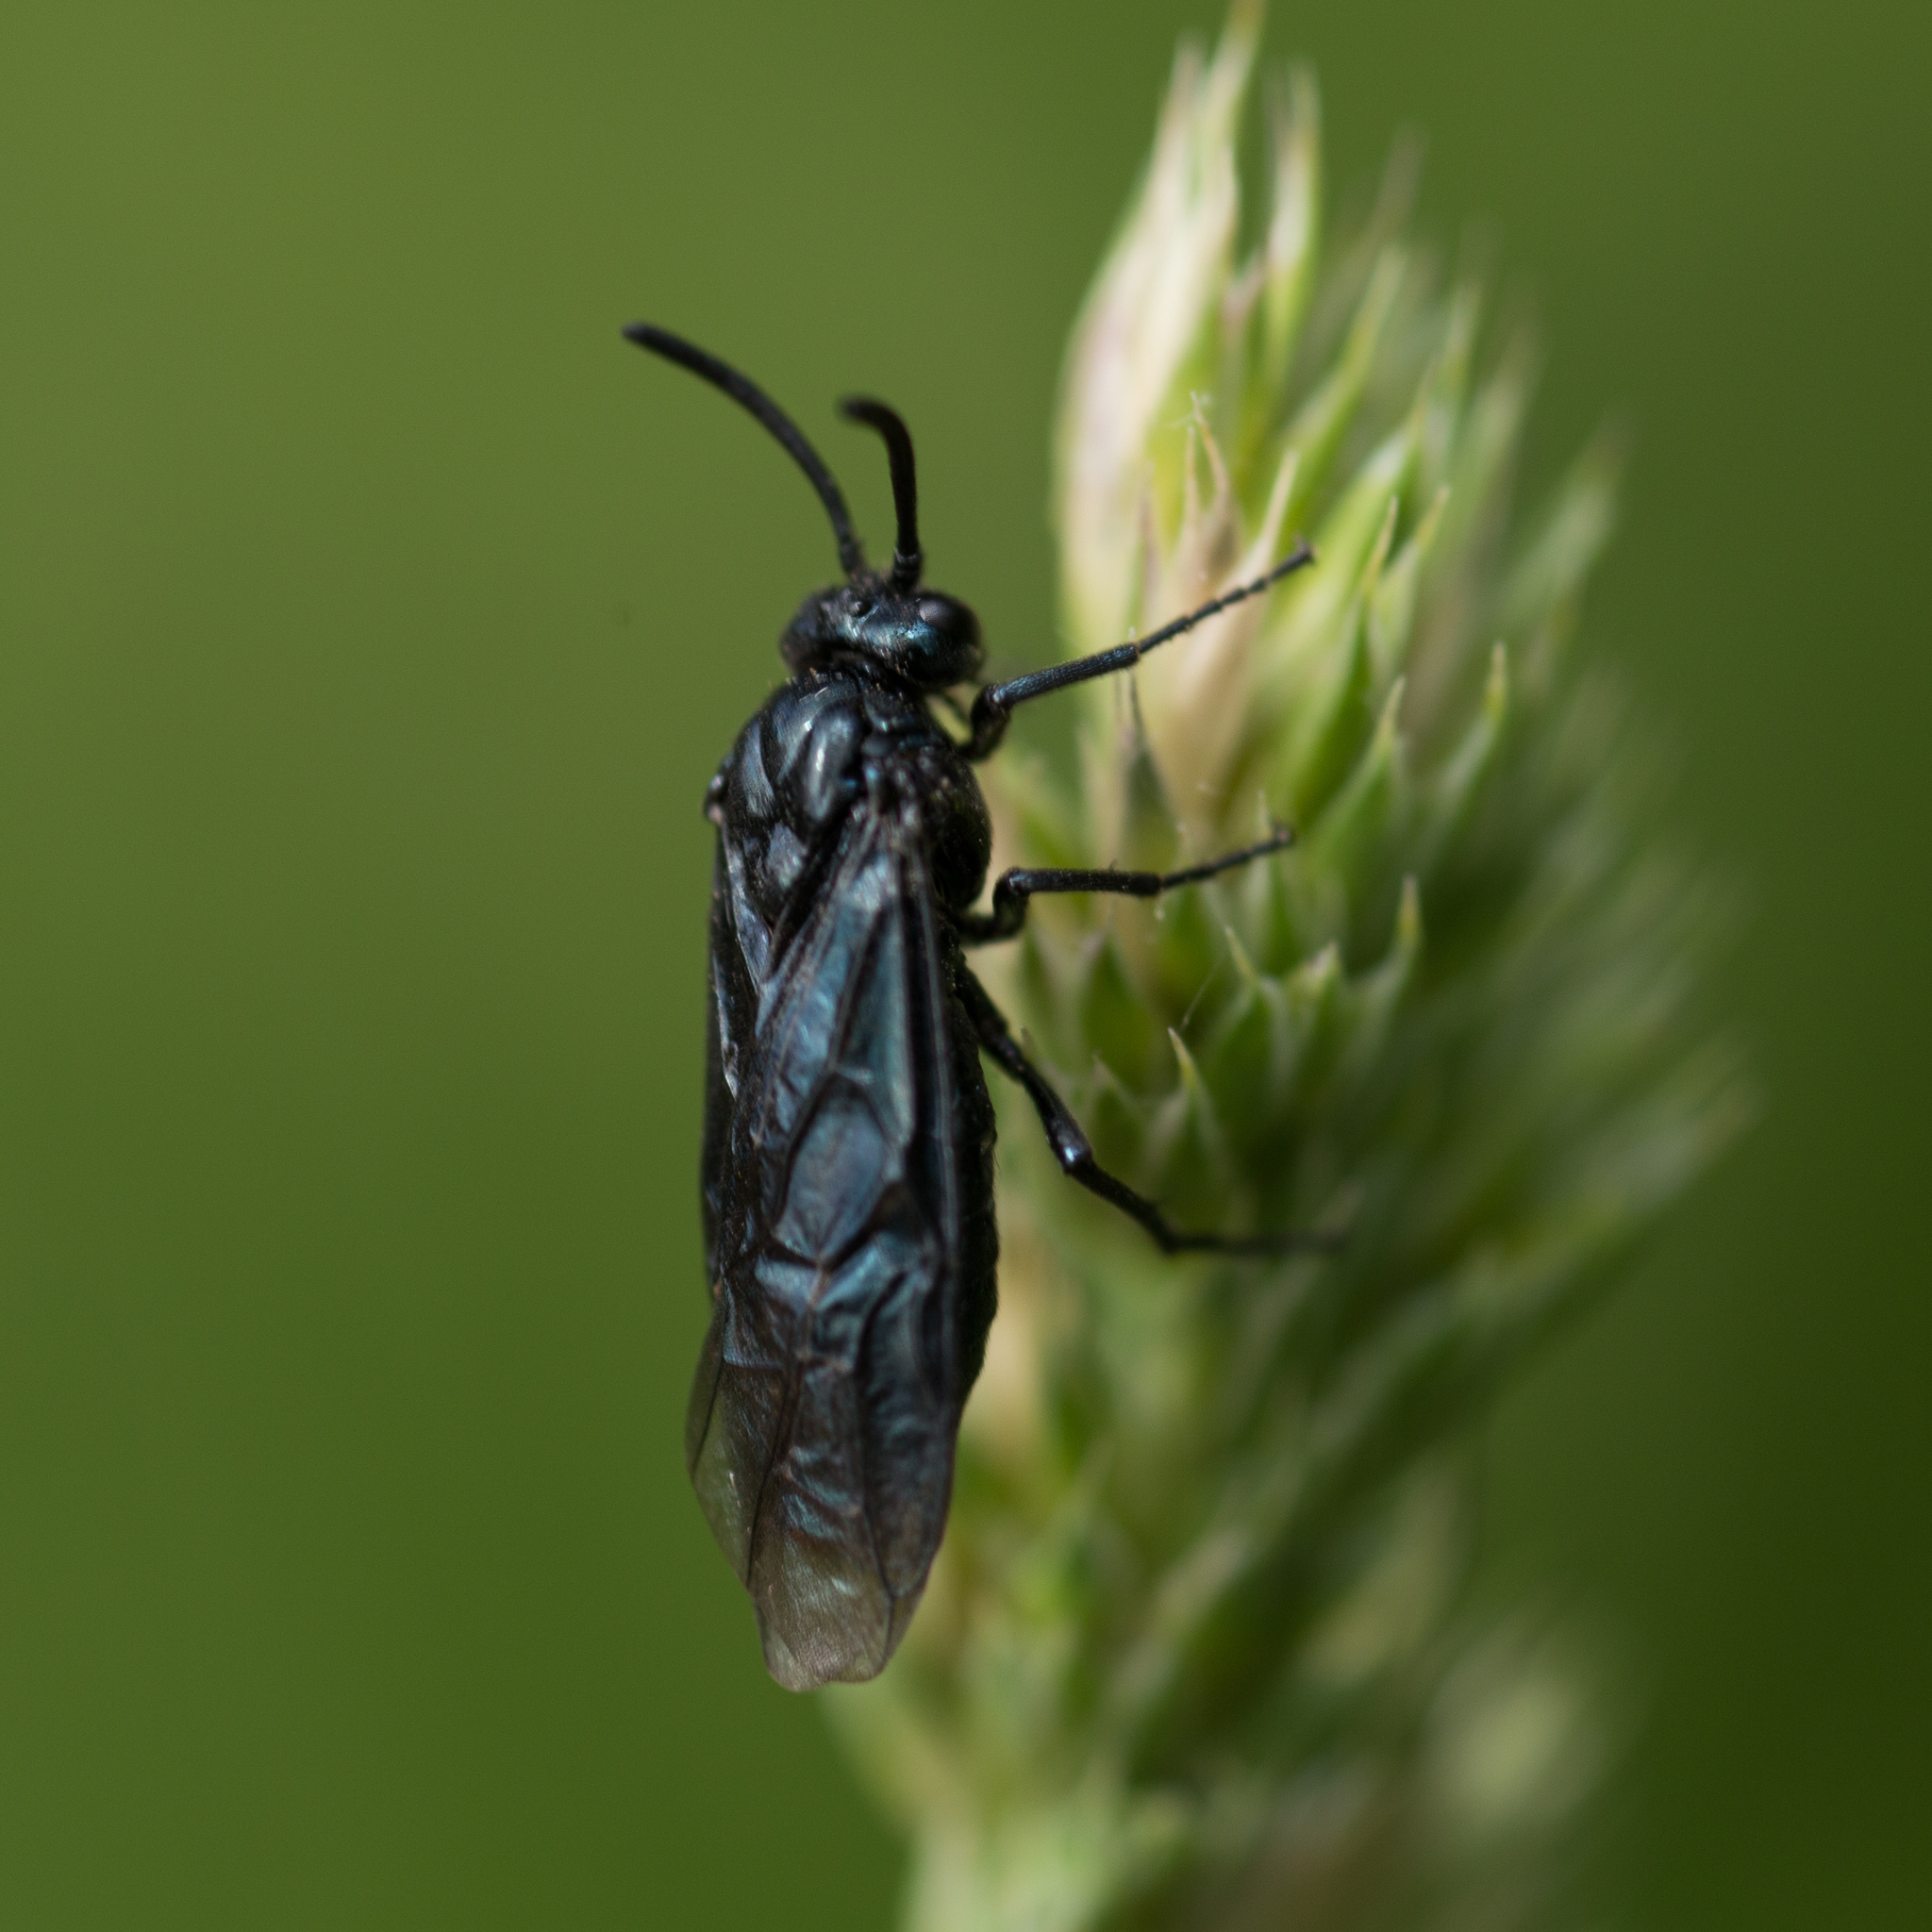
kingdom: Animalia
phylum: Arthropoda
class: Insecta
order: Hymenoptera
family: Argidae
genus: Arge
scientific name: Arge gracilicornis
